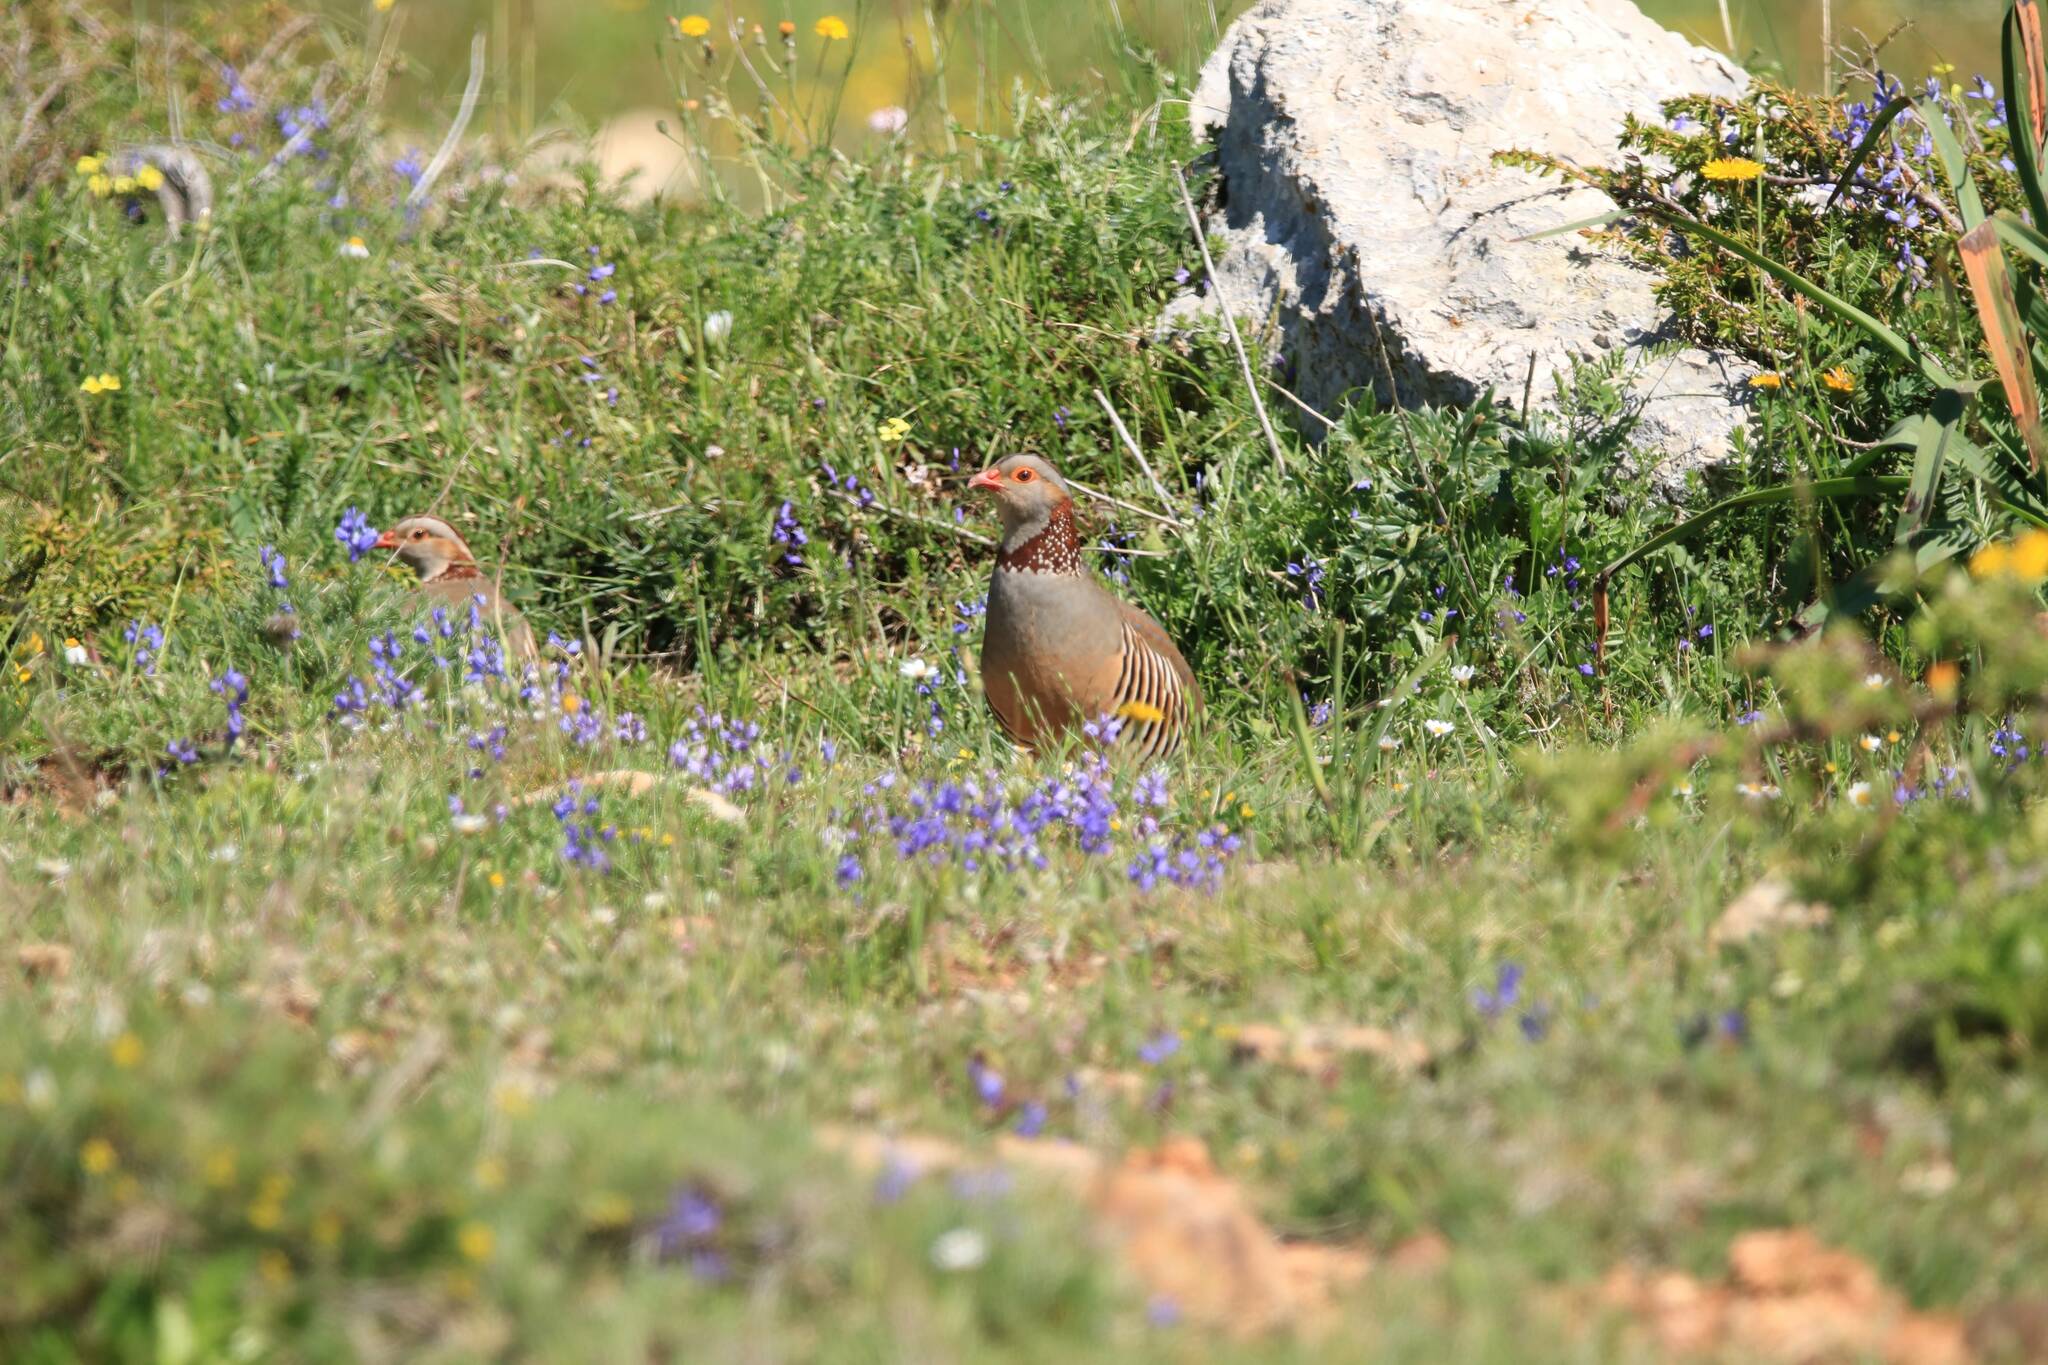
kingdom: Animalia
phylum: Chordata
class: Aves
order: Galliformes
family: Phasianidae
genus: Alectoris
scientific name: Alectoris barbara
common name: Barbary partridge
